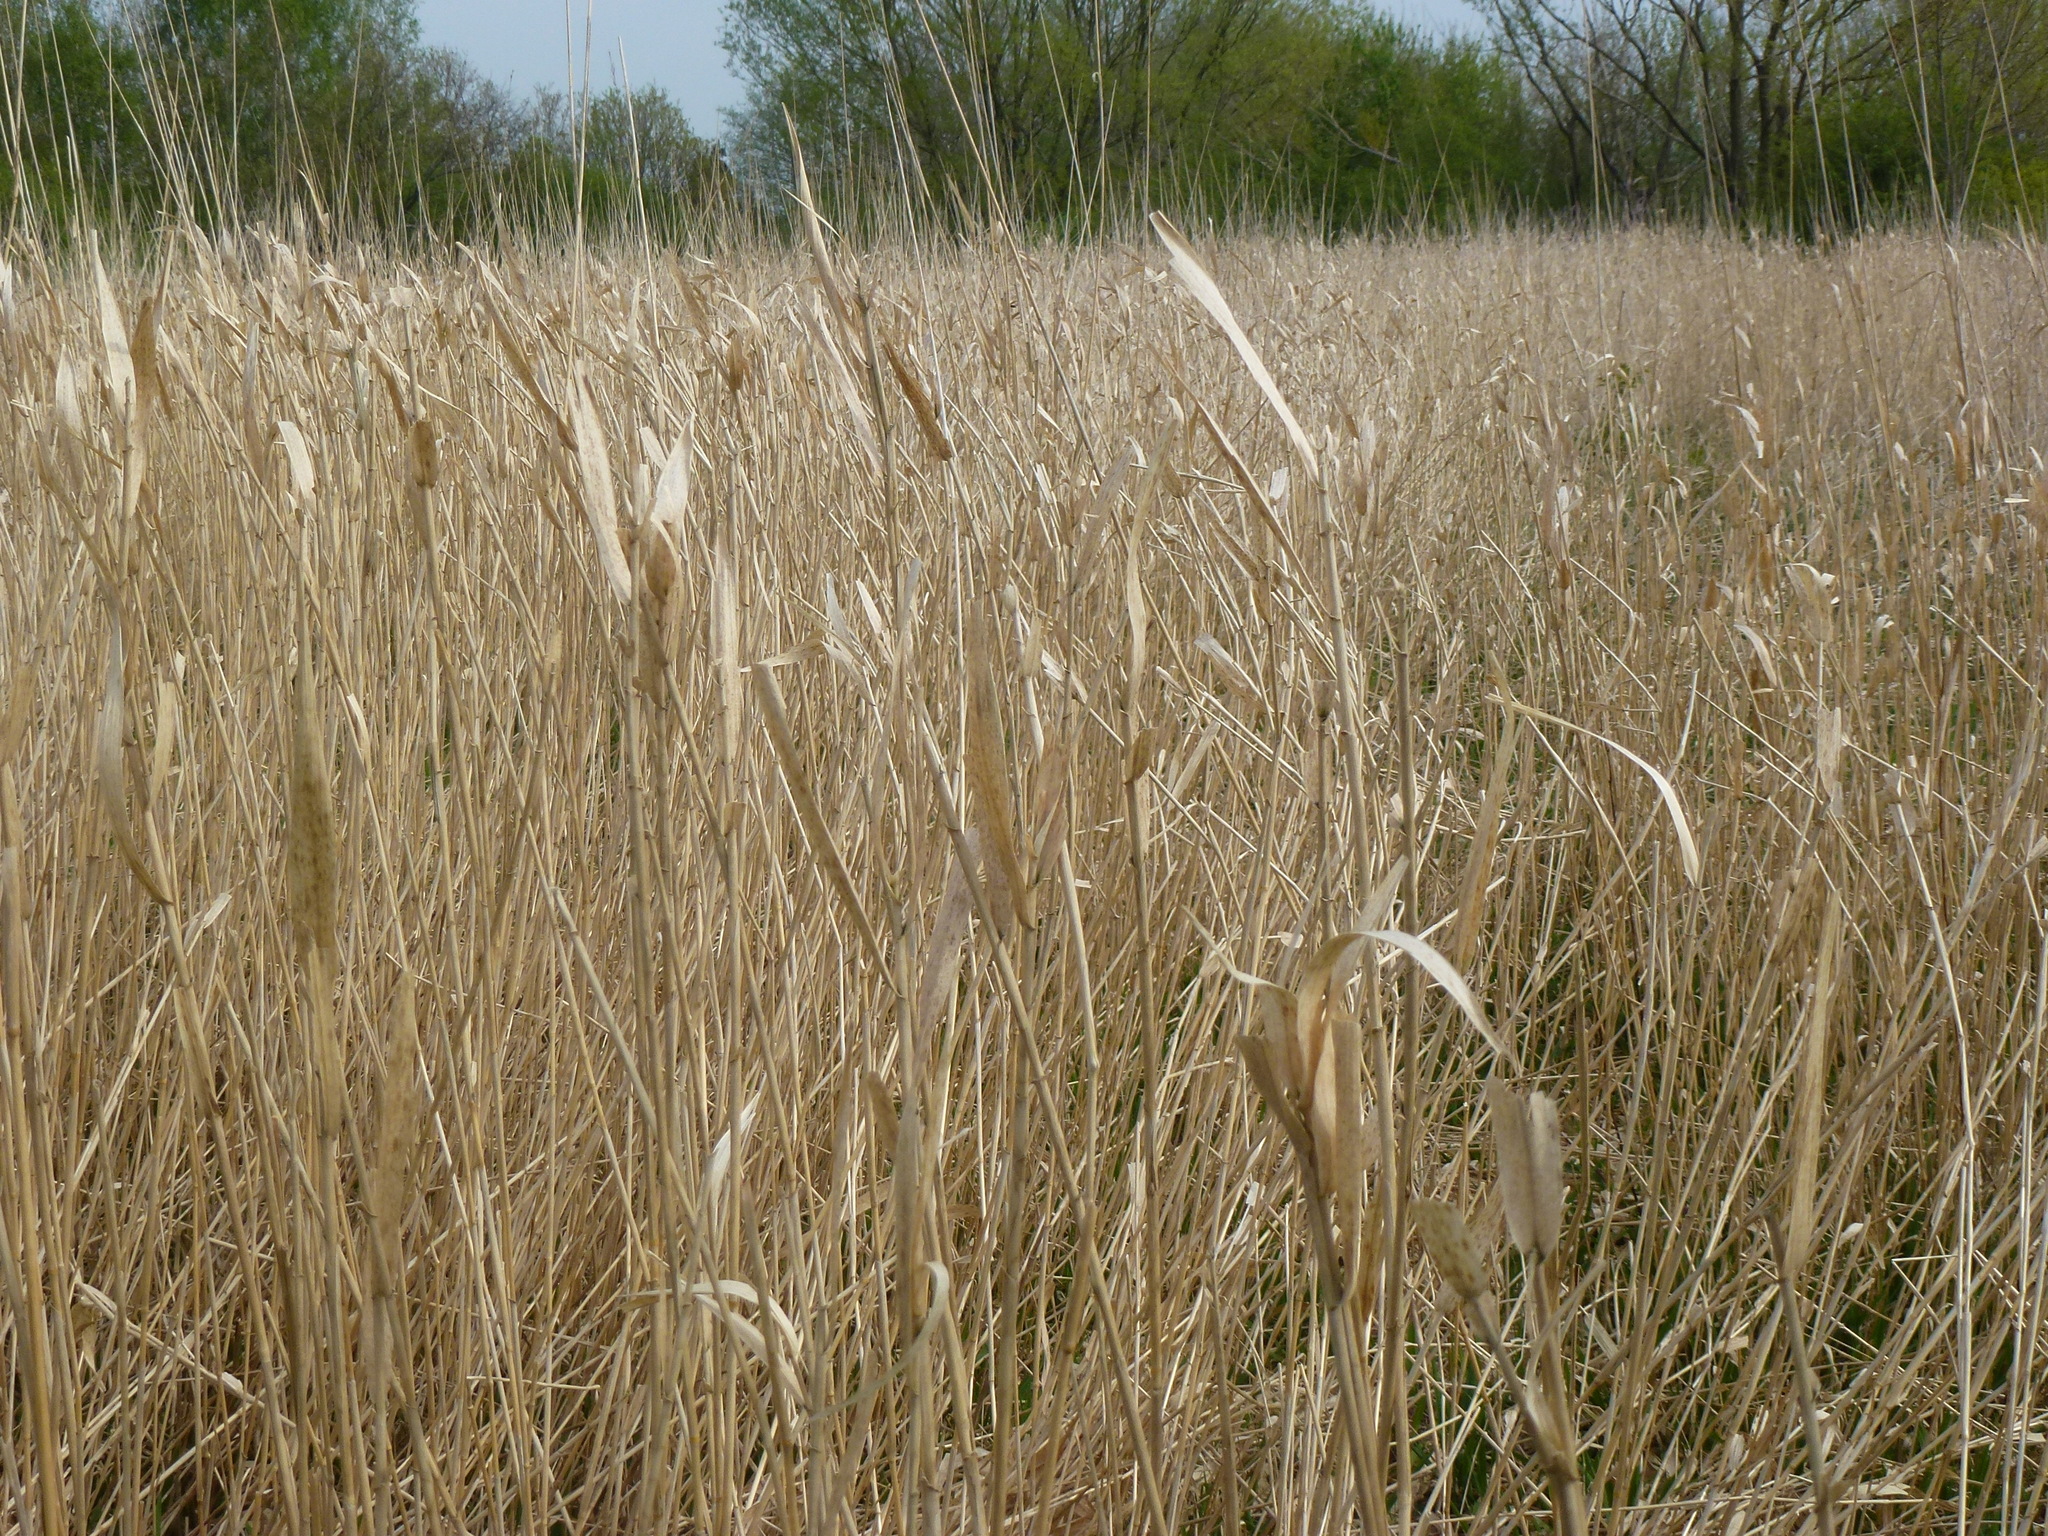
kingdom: Plantae
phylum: Tracheophyta
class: Liliopsida
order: Poales
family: Typhaceae
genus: Typha
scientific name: Typha latifolia
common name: Broadleaf cattail
